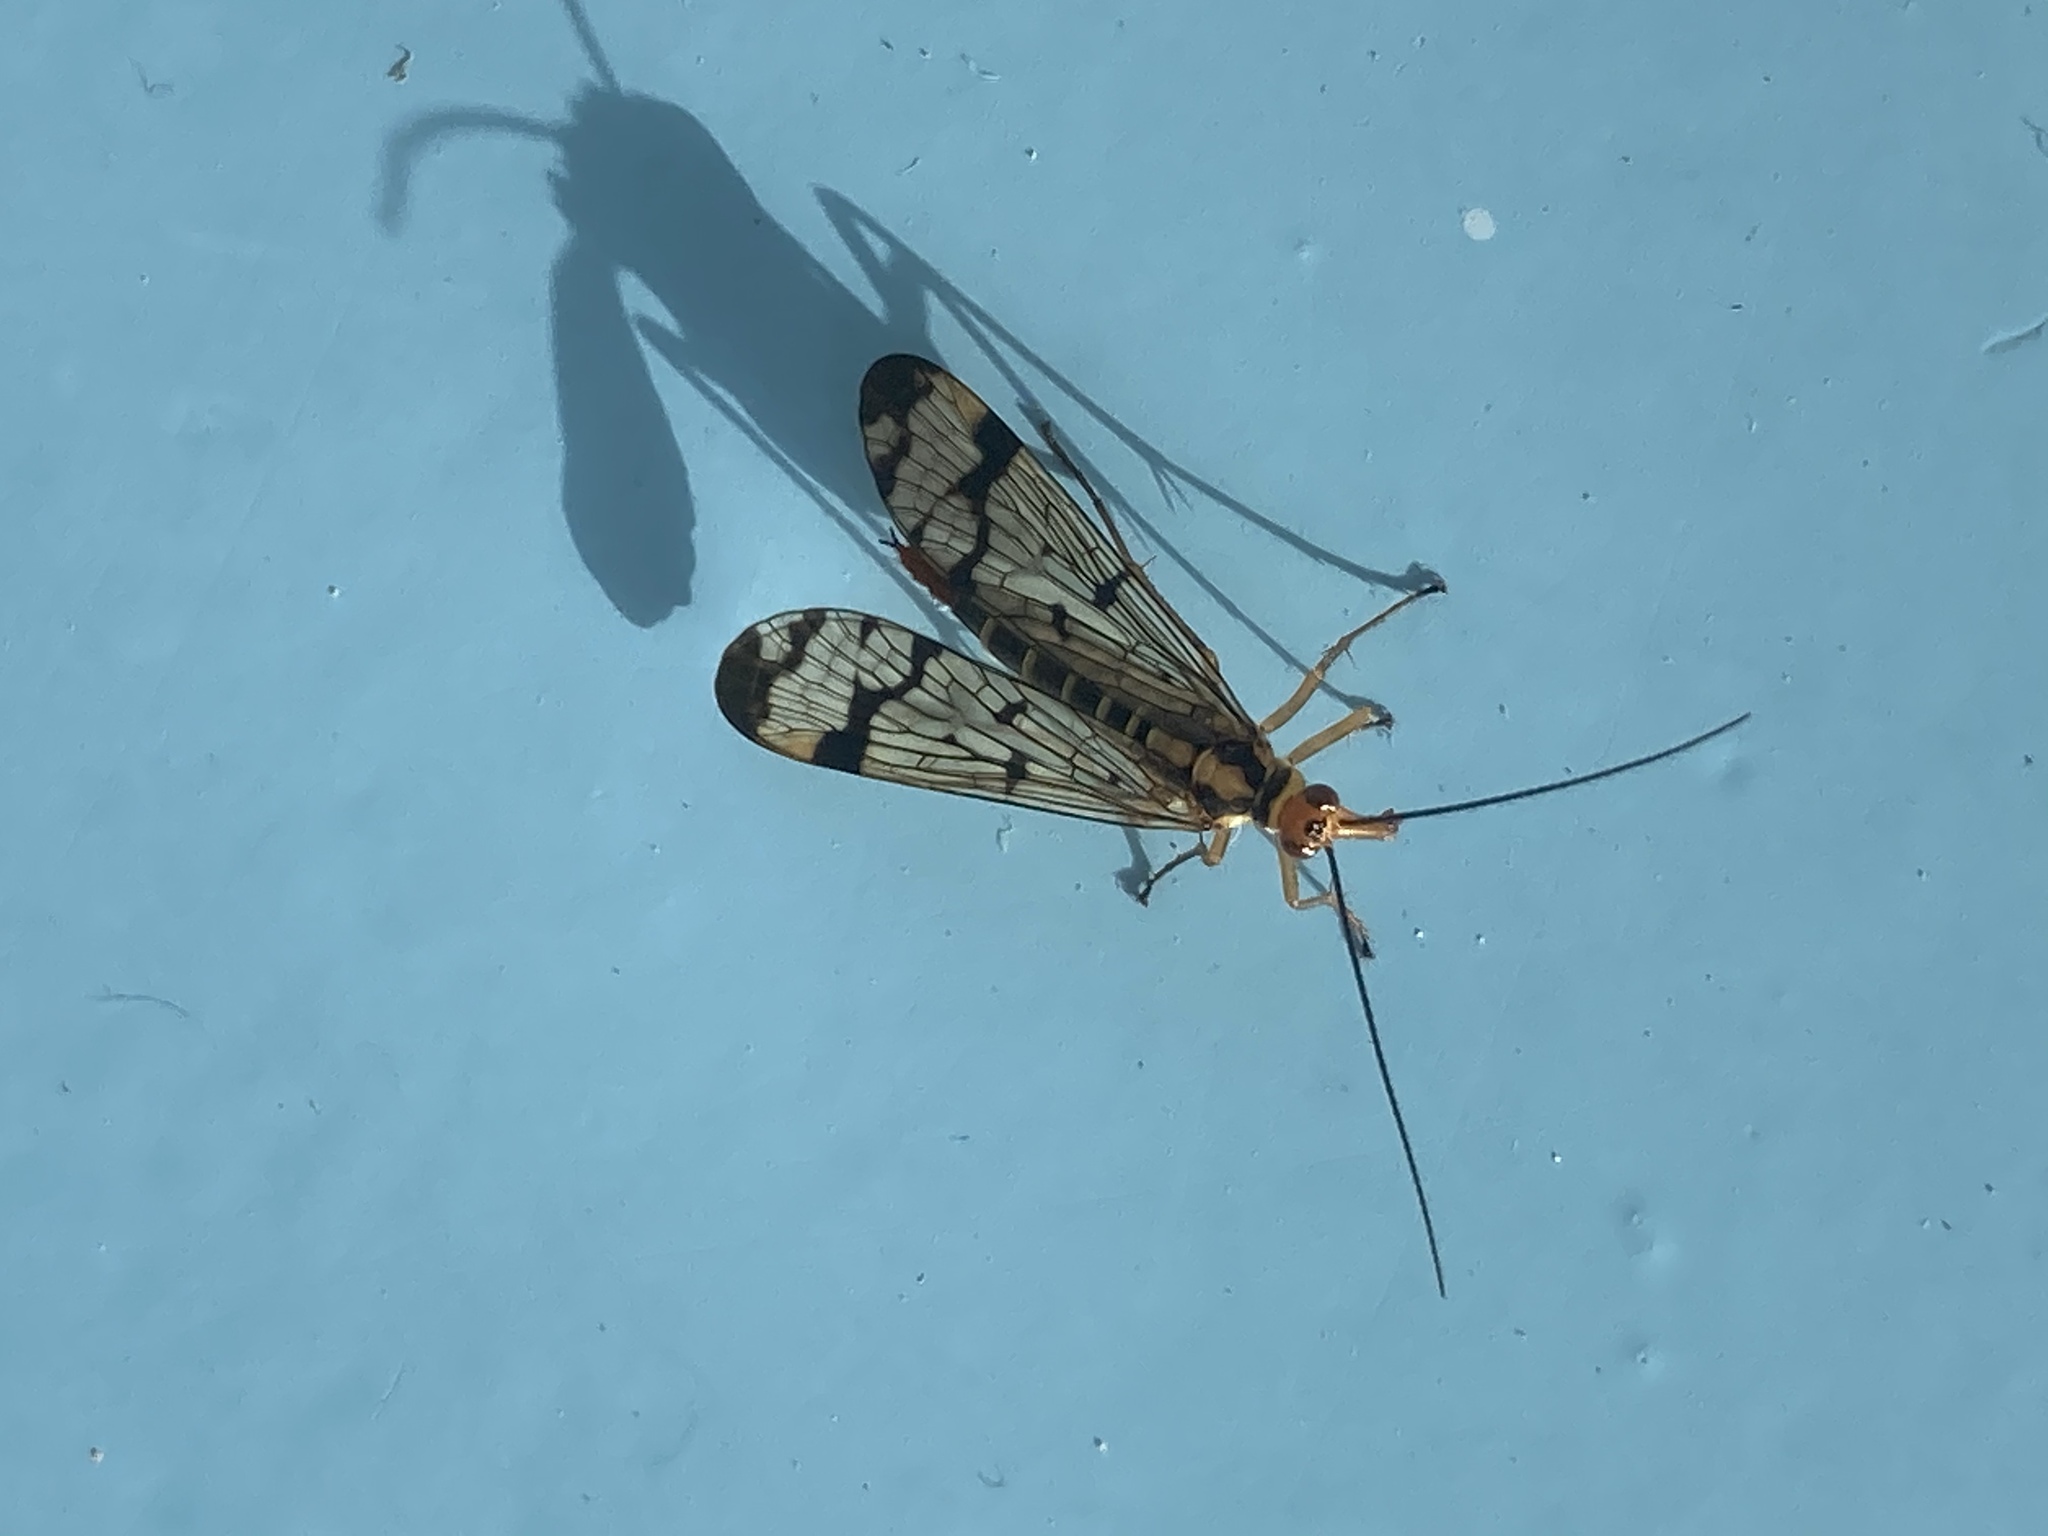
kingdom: Animalia
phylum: Arthropoda
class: Insecta
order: Mecoptera
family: Panorpidae
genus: Panorpa
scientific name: Panorpa lacedaemonia
